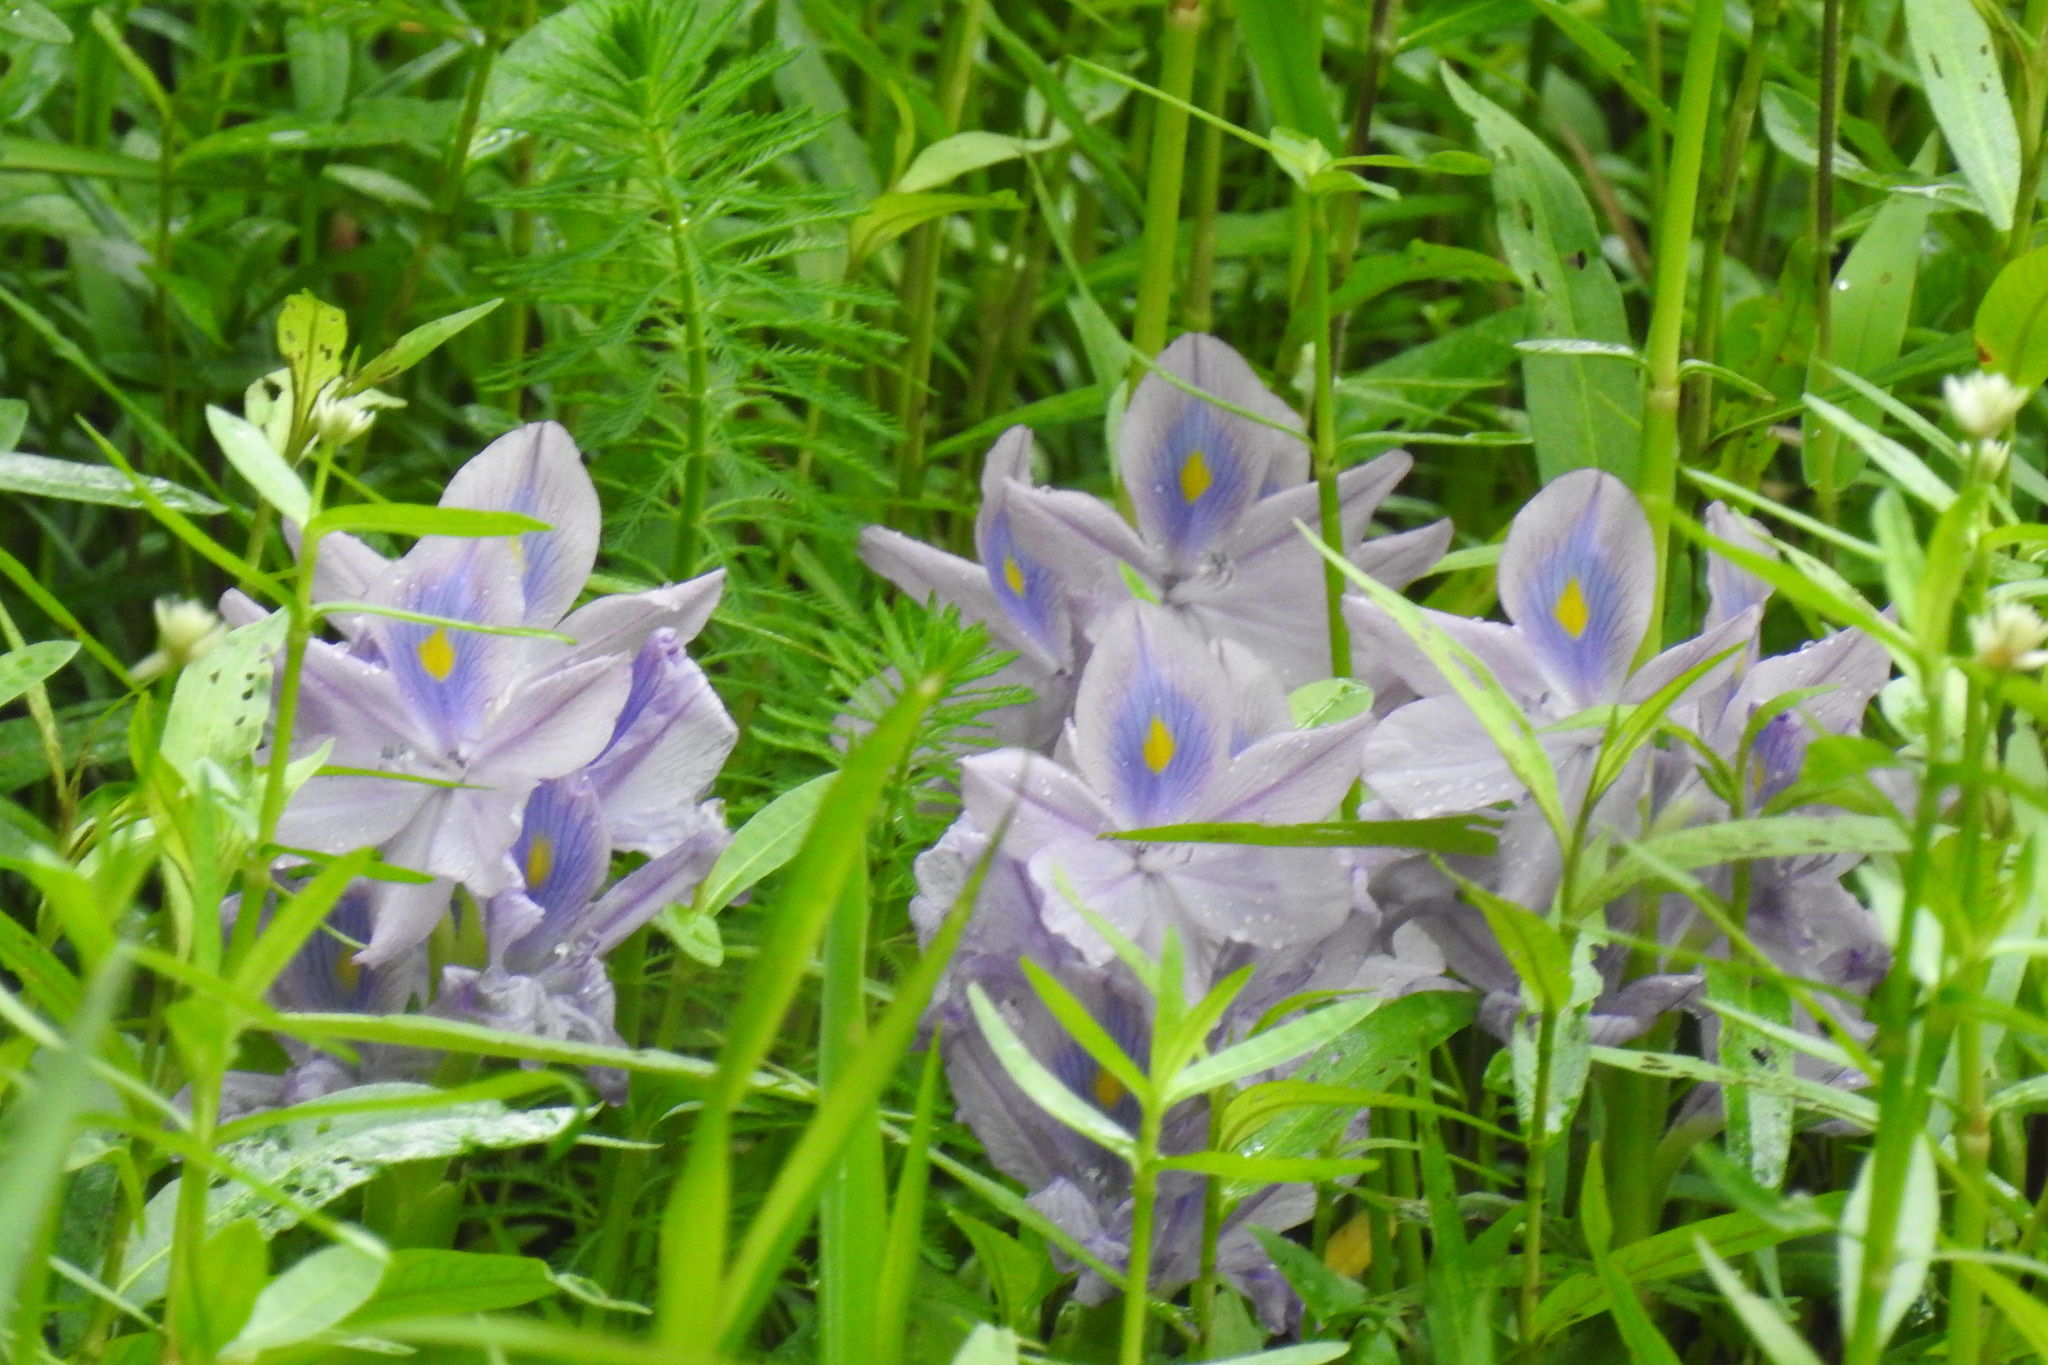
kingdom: Plantae
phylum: Tracheophyta
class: Liliopsida
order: Commelinales
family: Pontederiaceae
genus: Pontederia
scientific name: Pontederia crassipes
